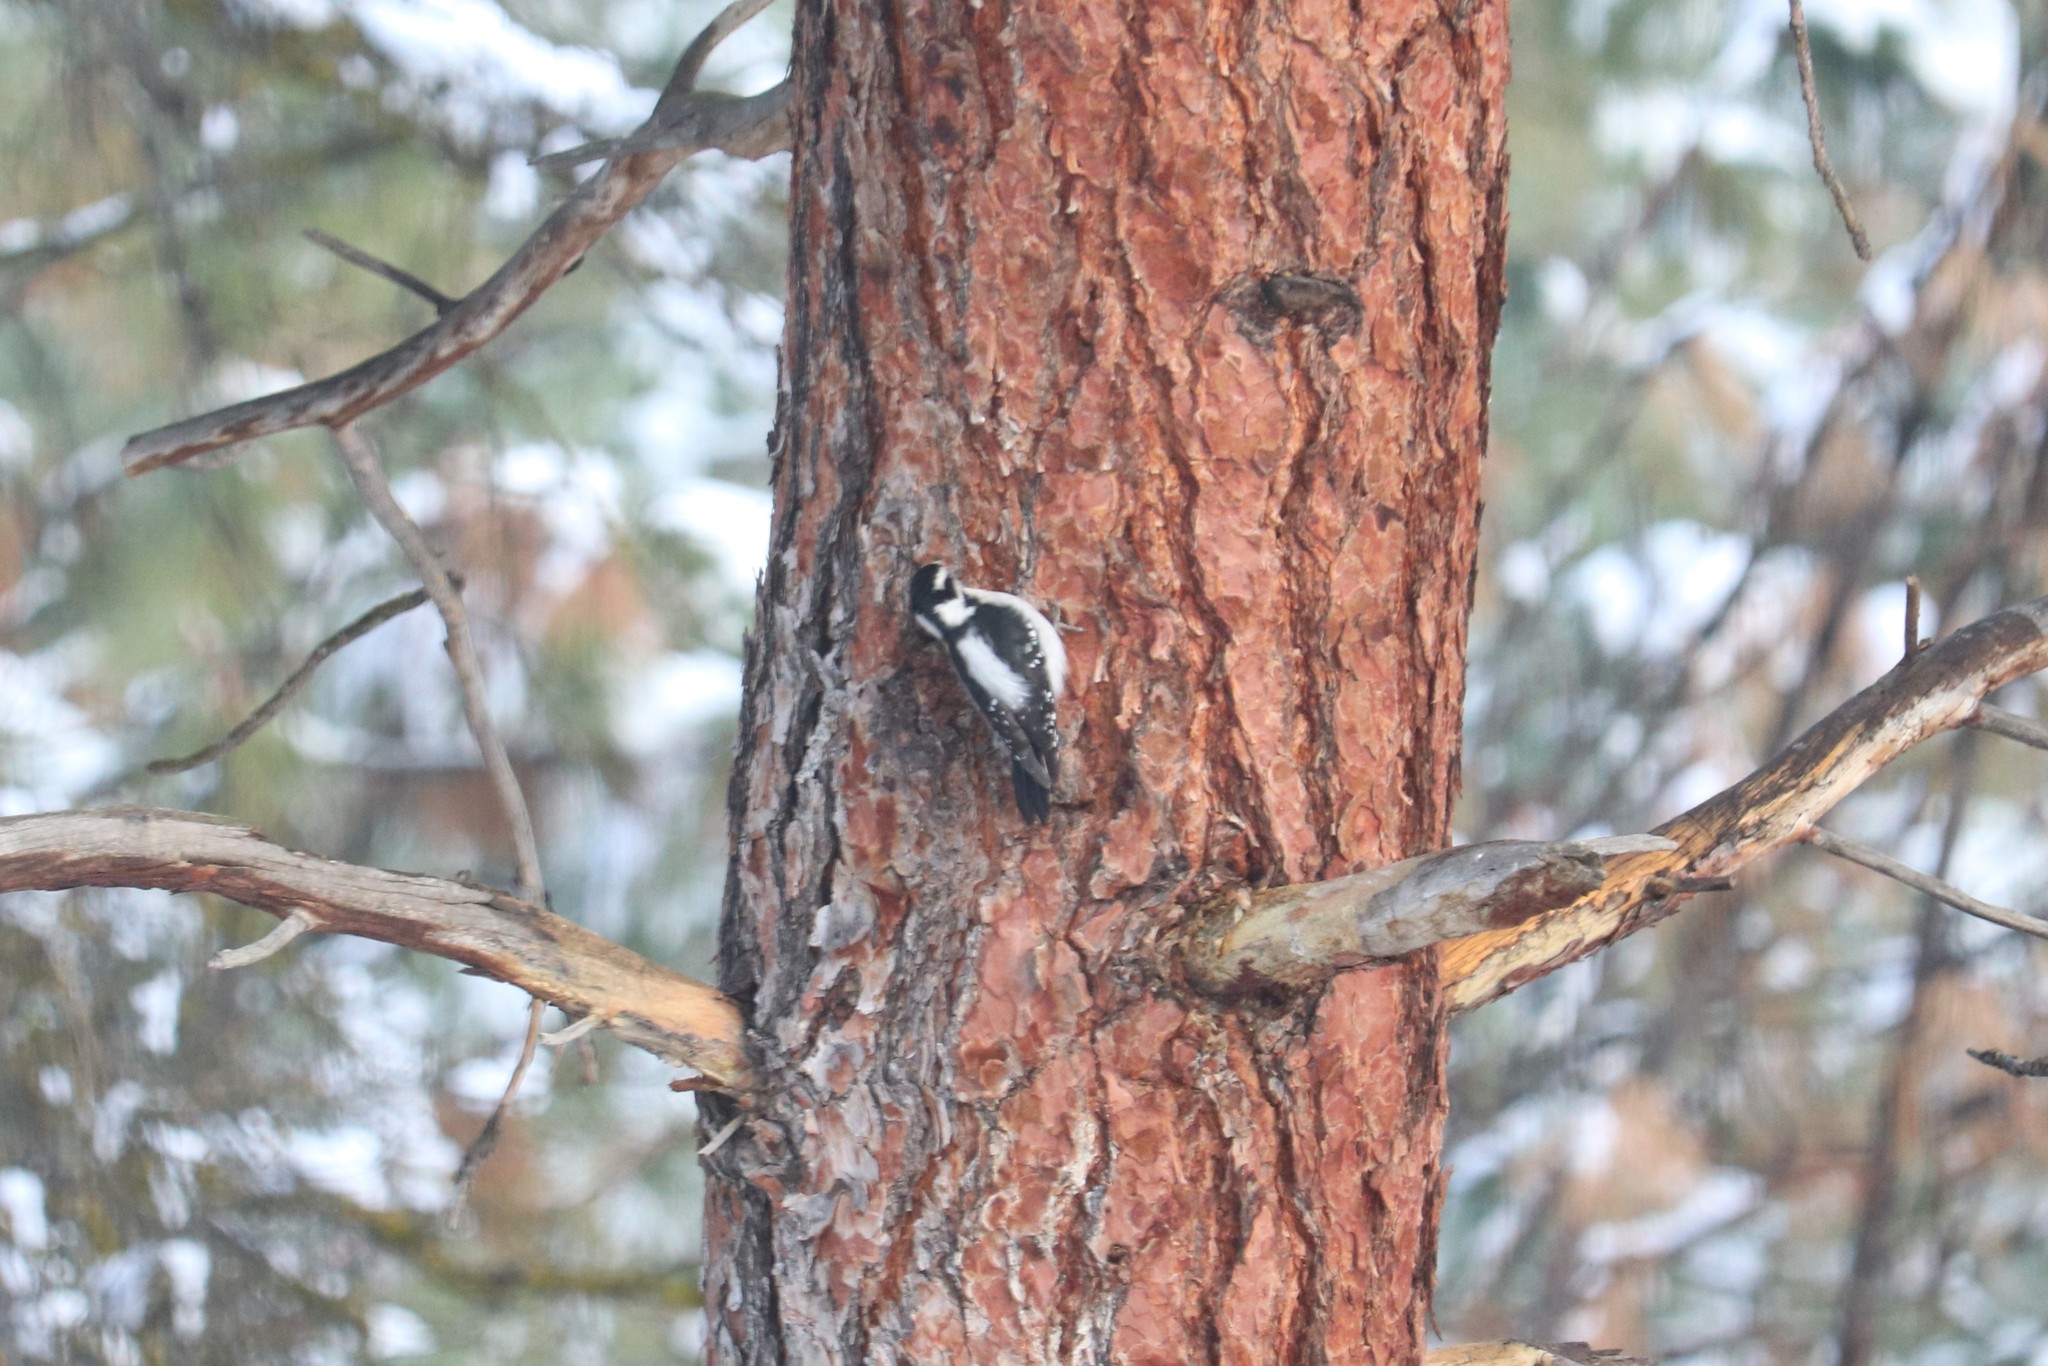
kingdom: Animalia
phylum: Chordata
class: Aves
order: Piciformes
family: Picidae
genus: Dryobates
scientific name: Dryobates pubescens
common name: Downy woodpecker
